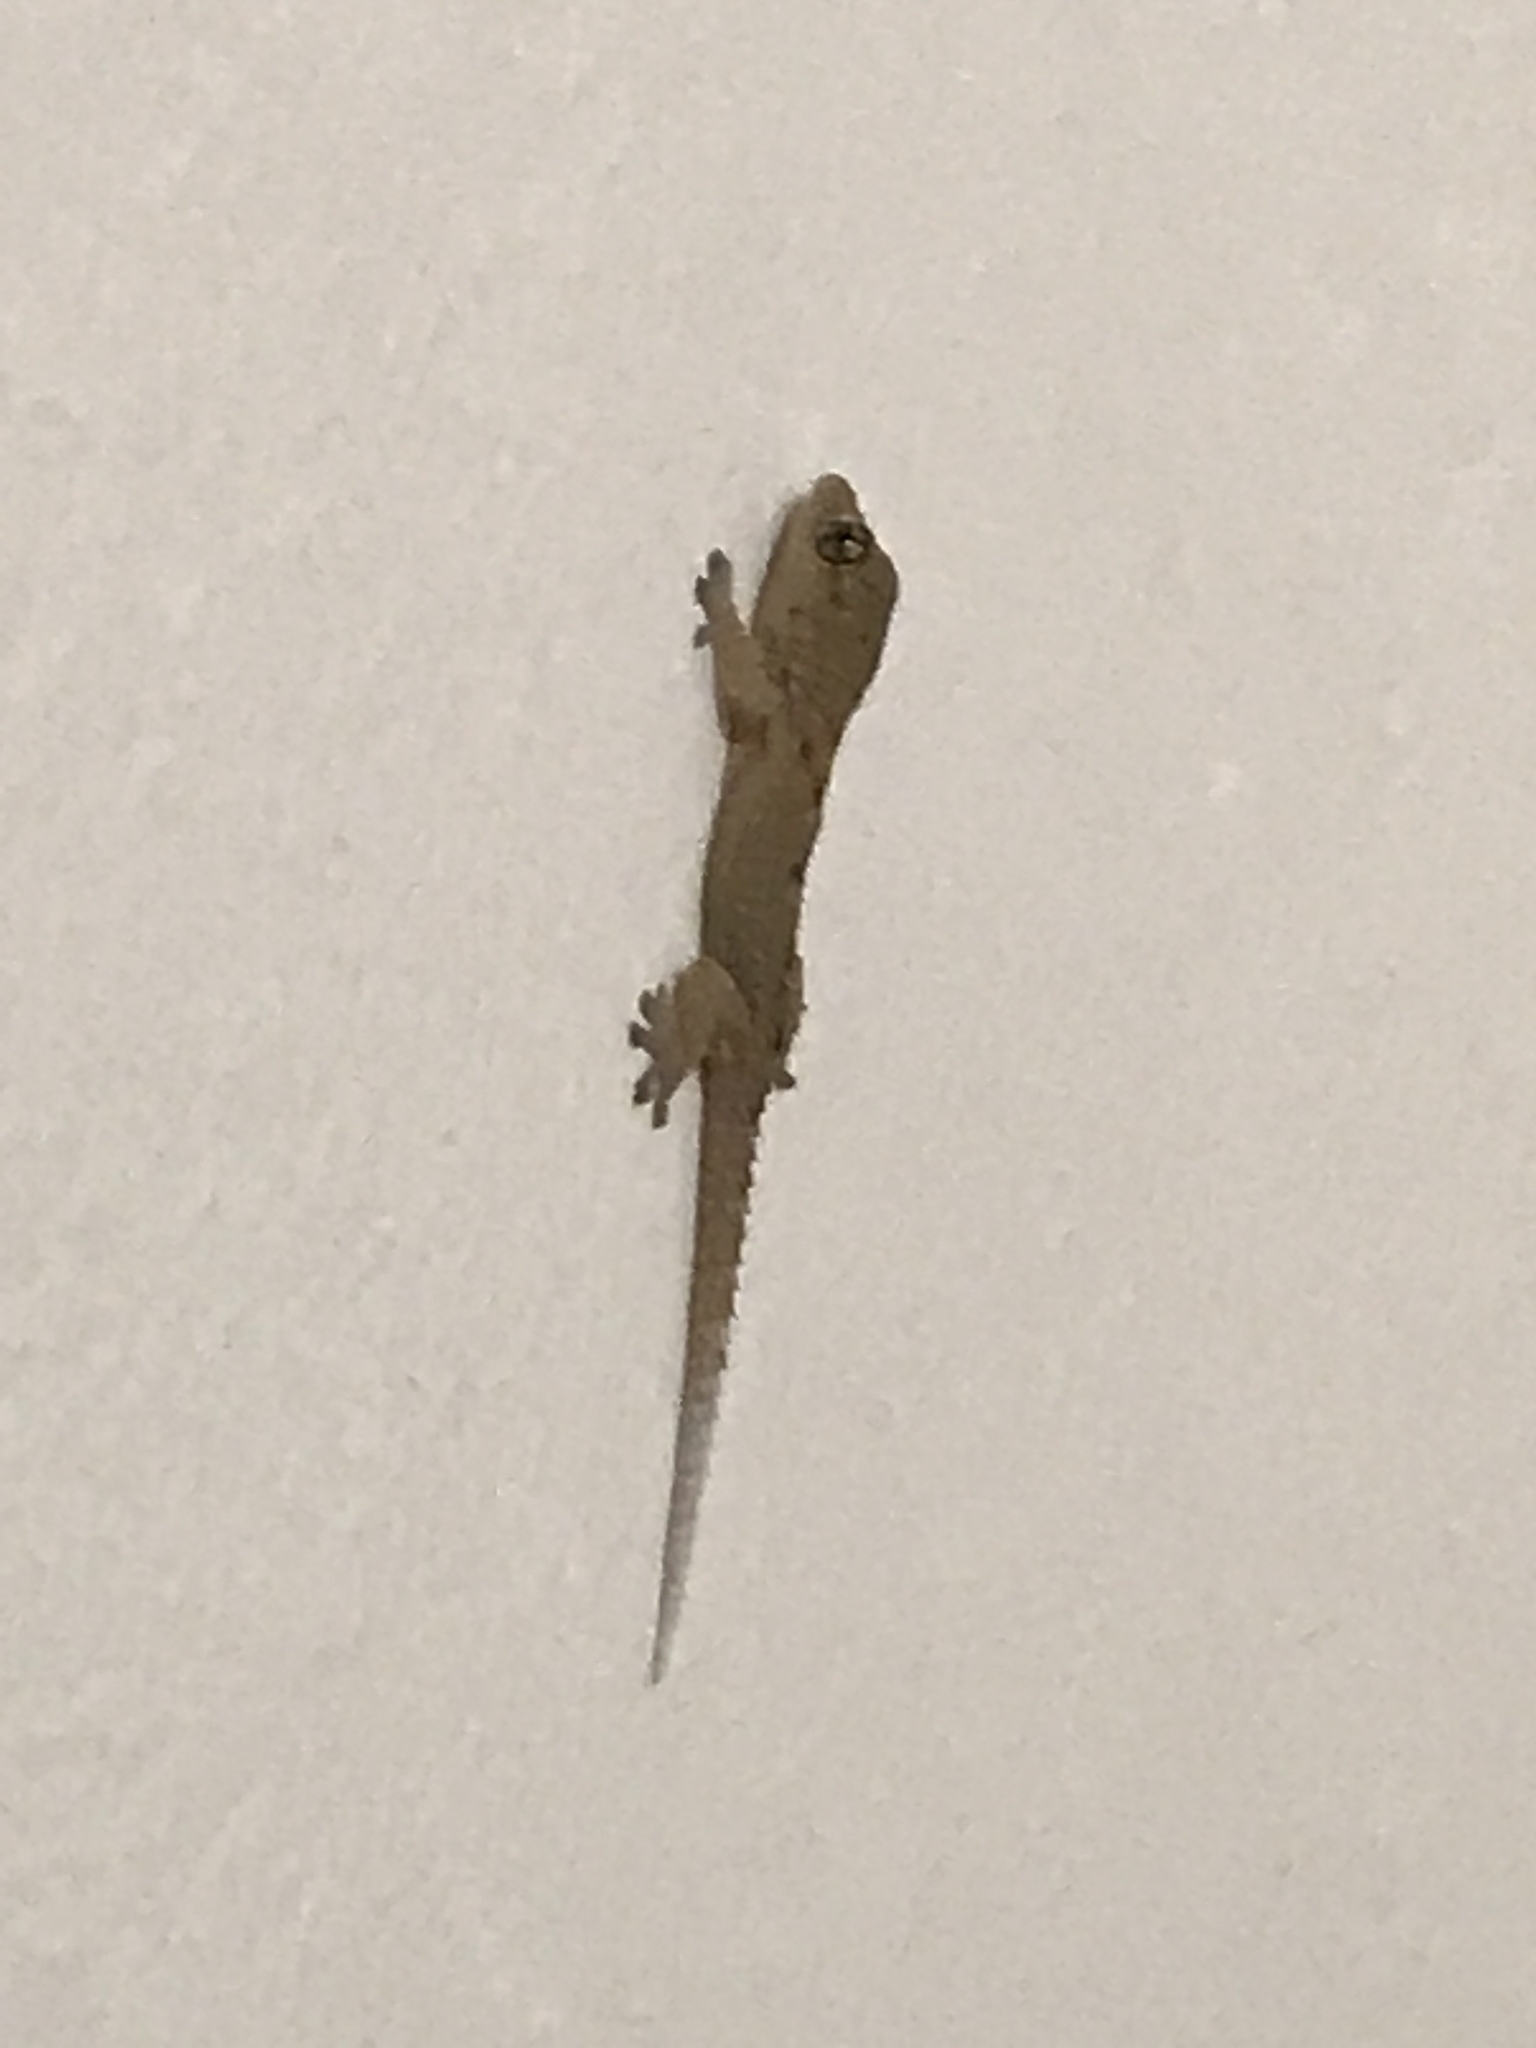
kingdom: Animalia
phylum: Chordata
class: Squamata
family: Phyllodactylidae
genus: Tarentola
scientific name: Tarentola delalandii
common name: Tenerife wall gecko
